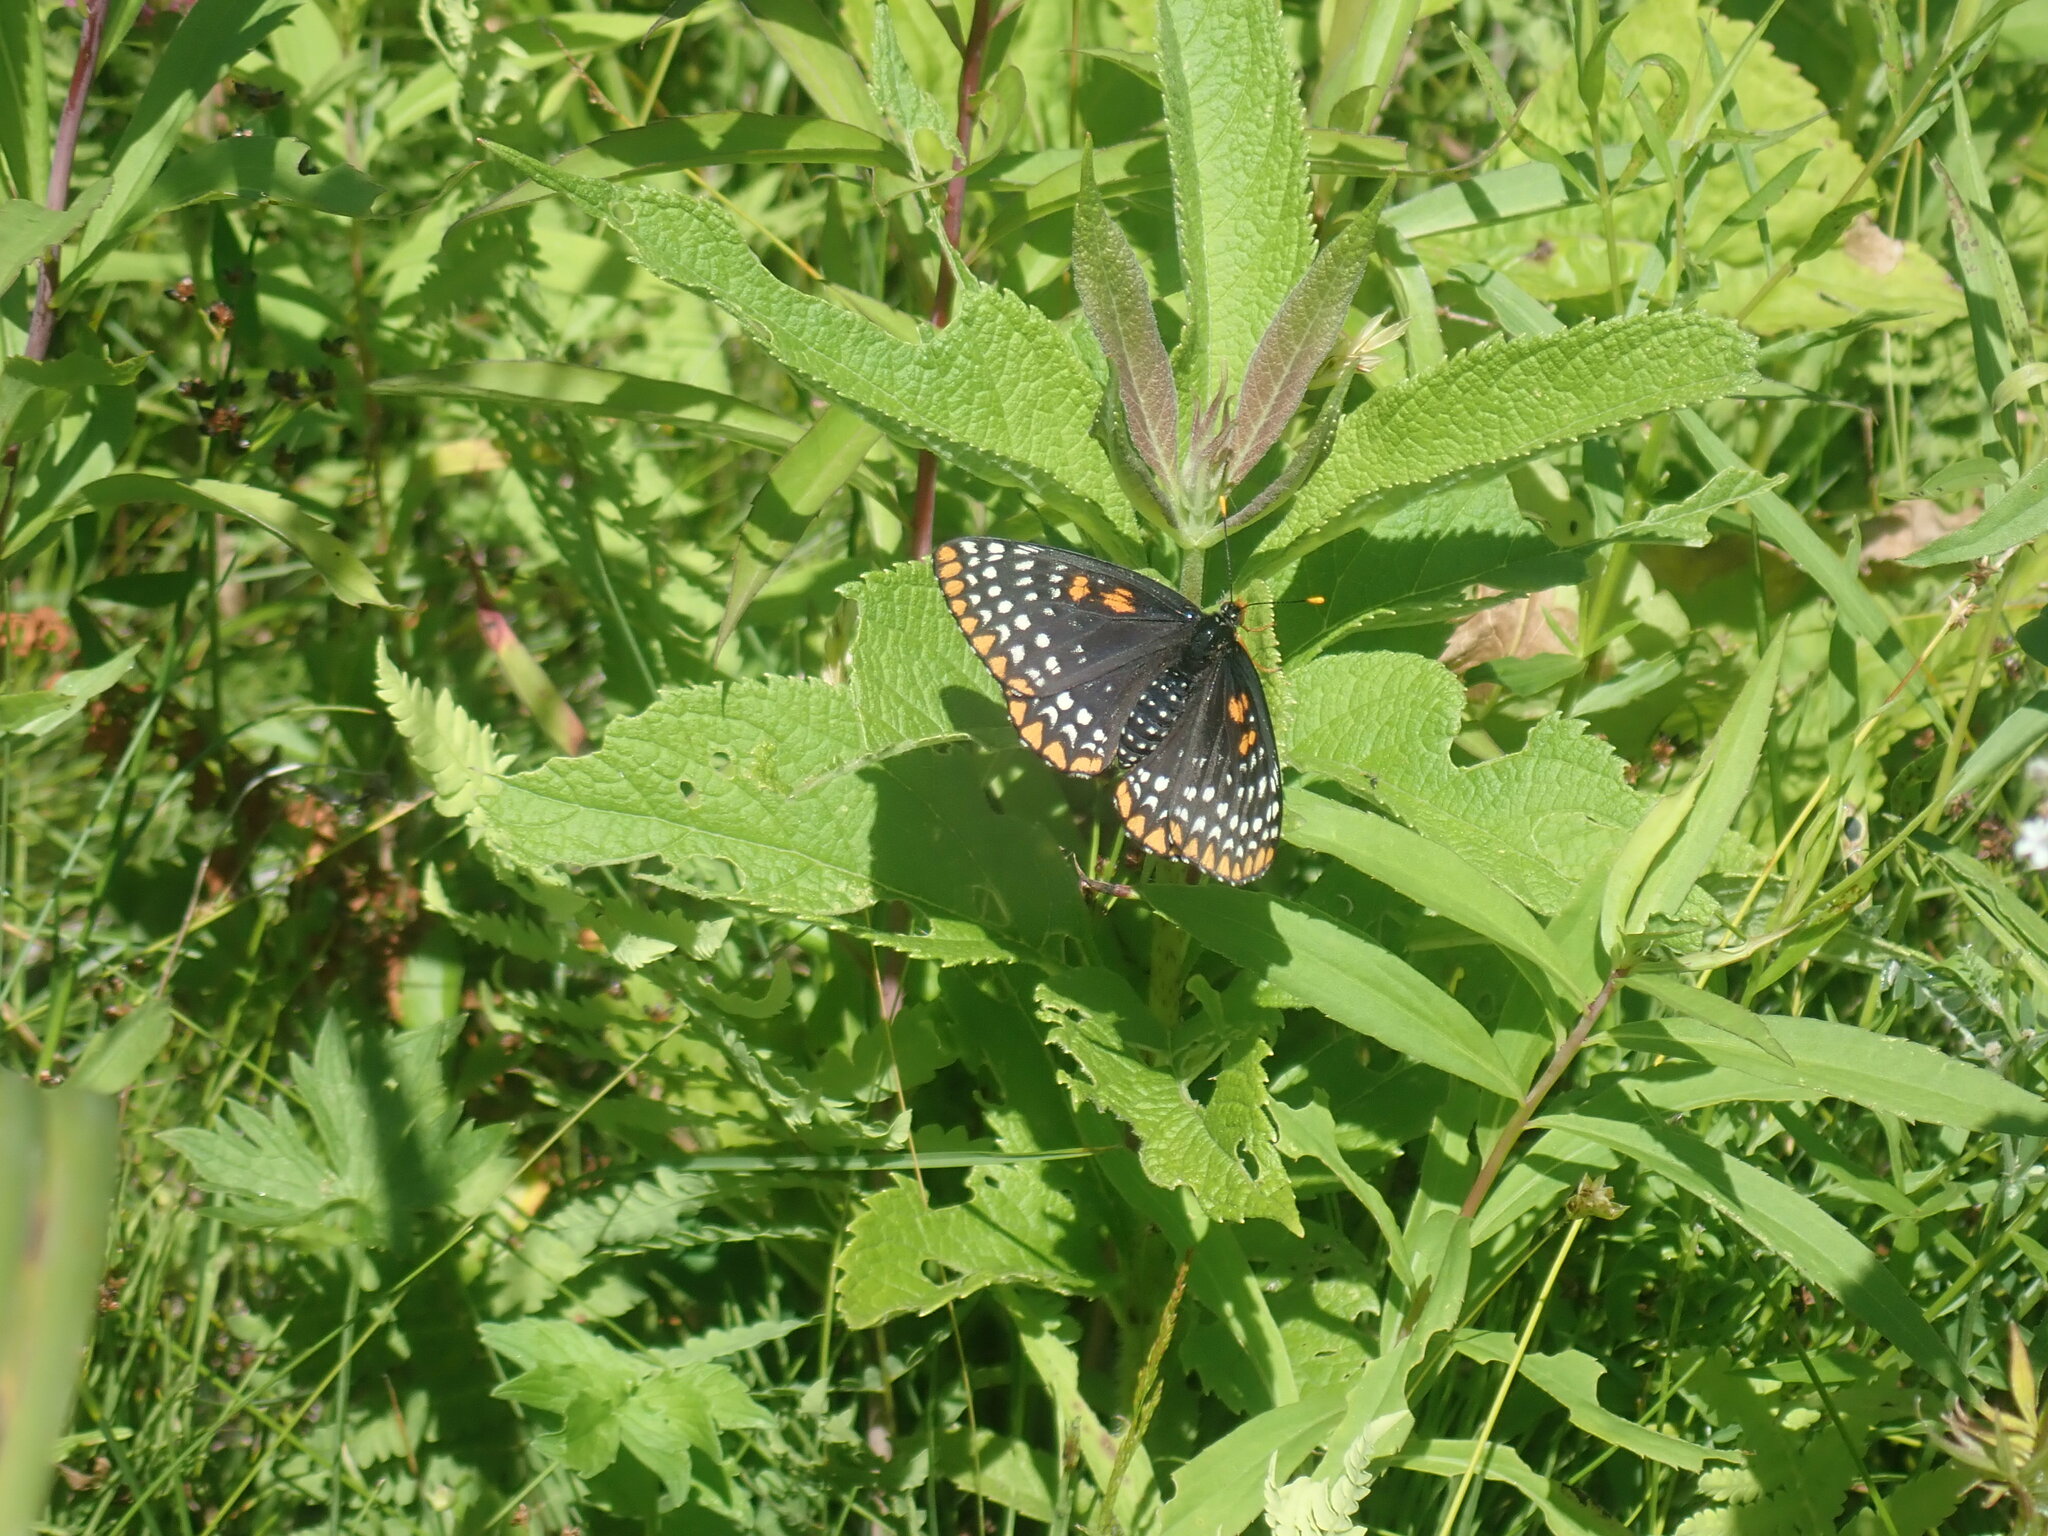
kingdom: Animalia
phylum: Arthropoda
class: Insecta
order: Lepidoptera
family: Nymphalidae
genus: Euphydryas
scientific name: Euphydryas phaeton
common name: Baltimore checkerspot
